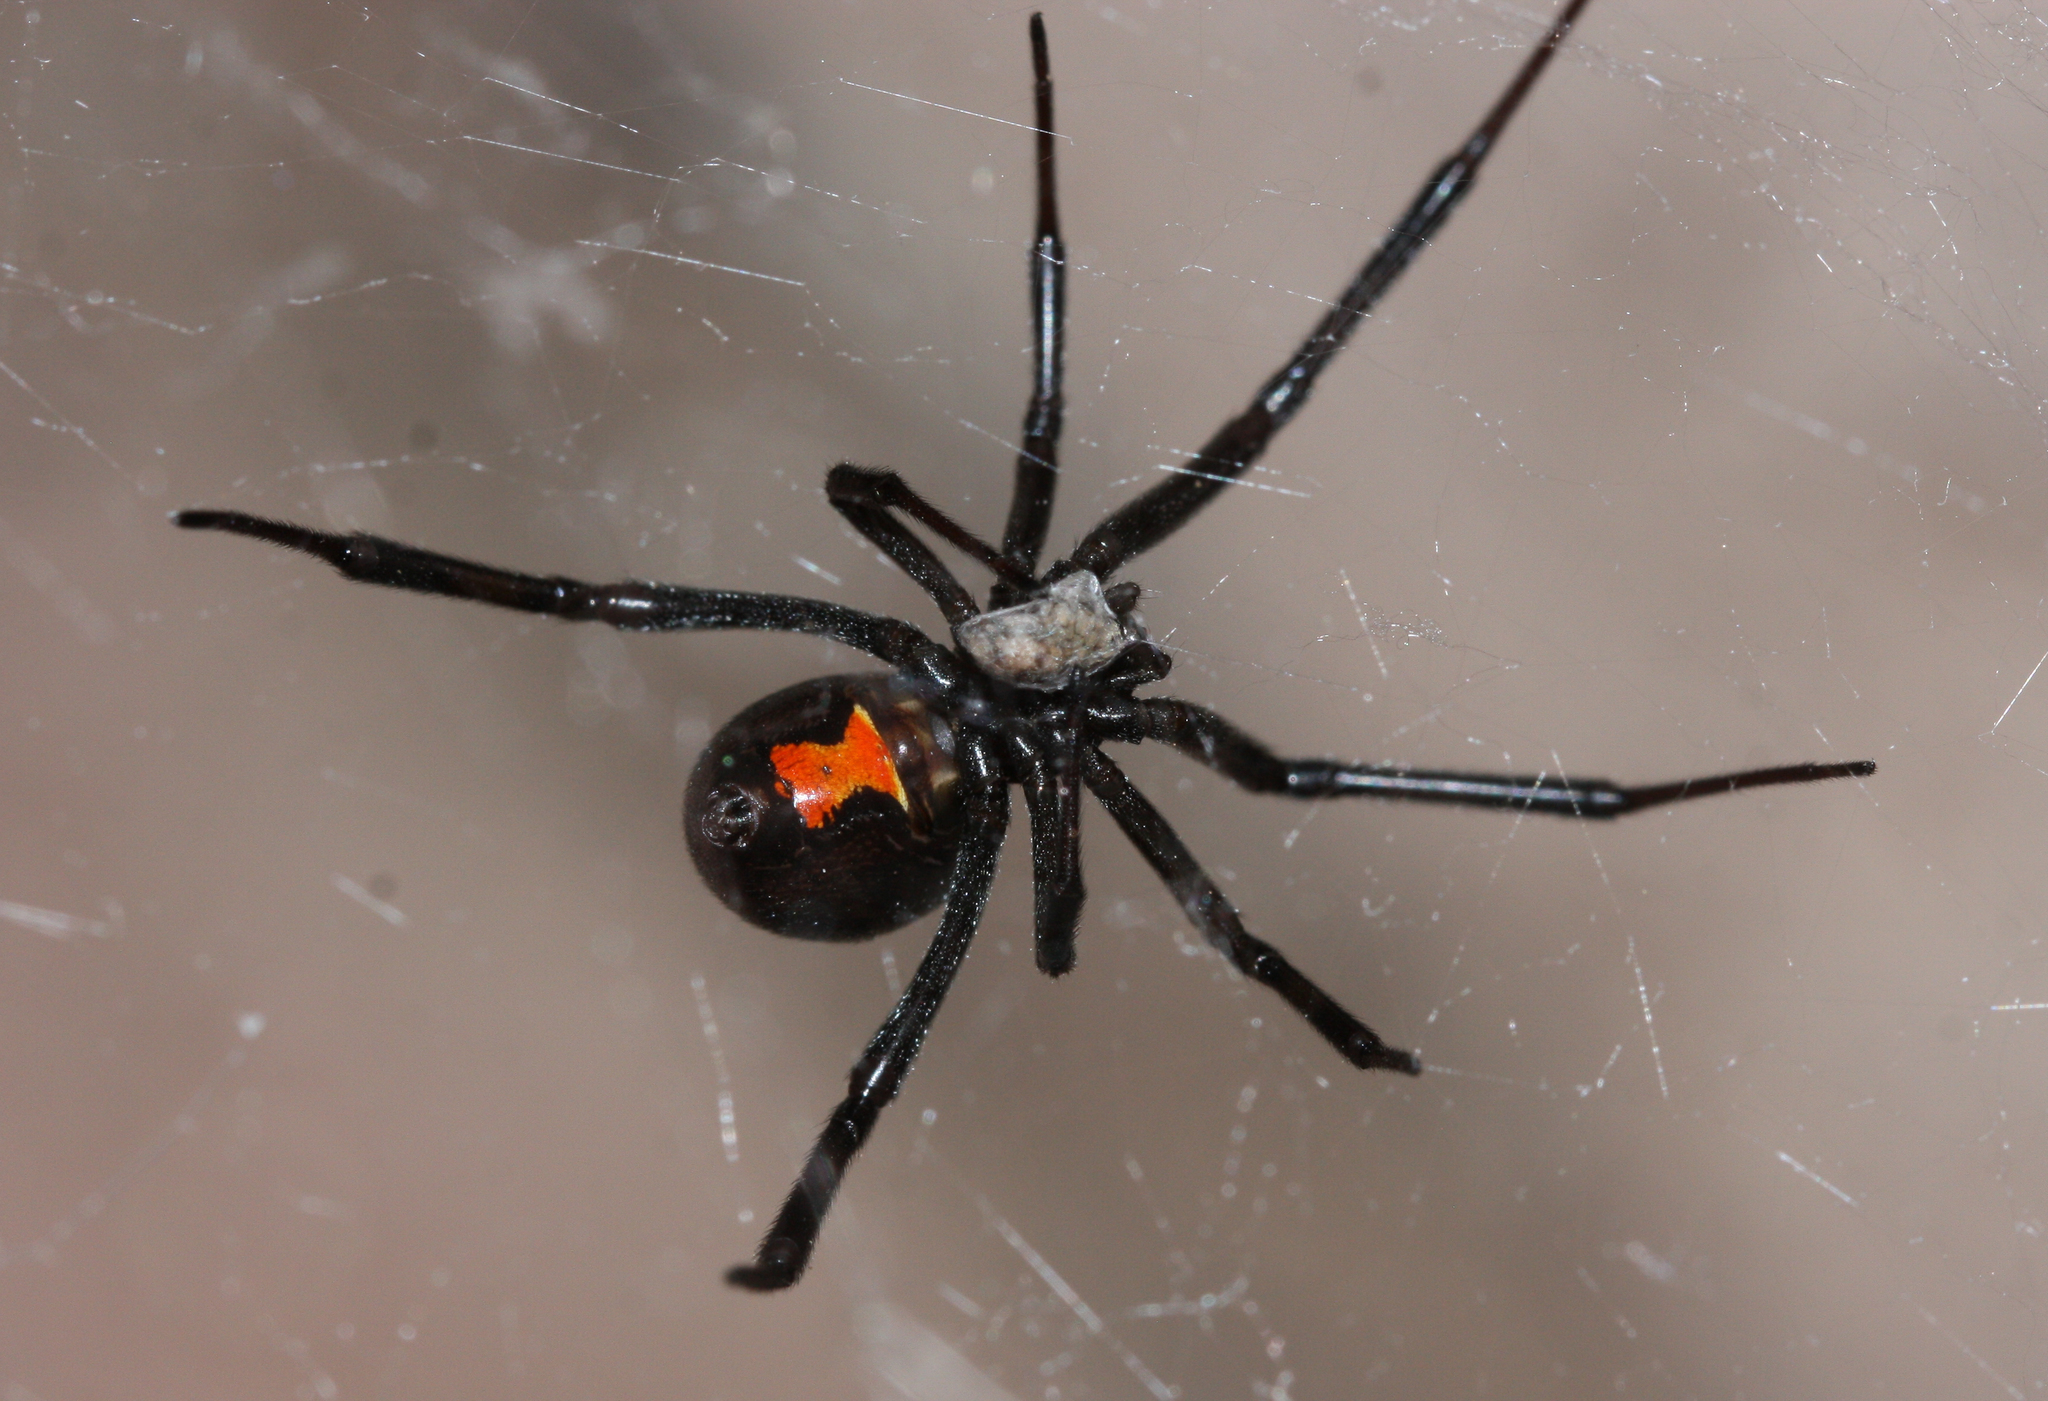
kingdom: Animalia
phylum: Arthropoda
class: Arachnida
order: Araneae
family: Theridiidae
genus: Latrodectus
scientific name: Latrodectus hesperus
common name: Western black widow
